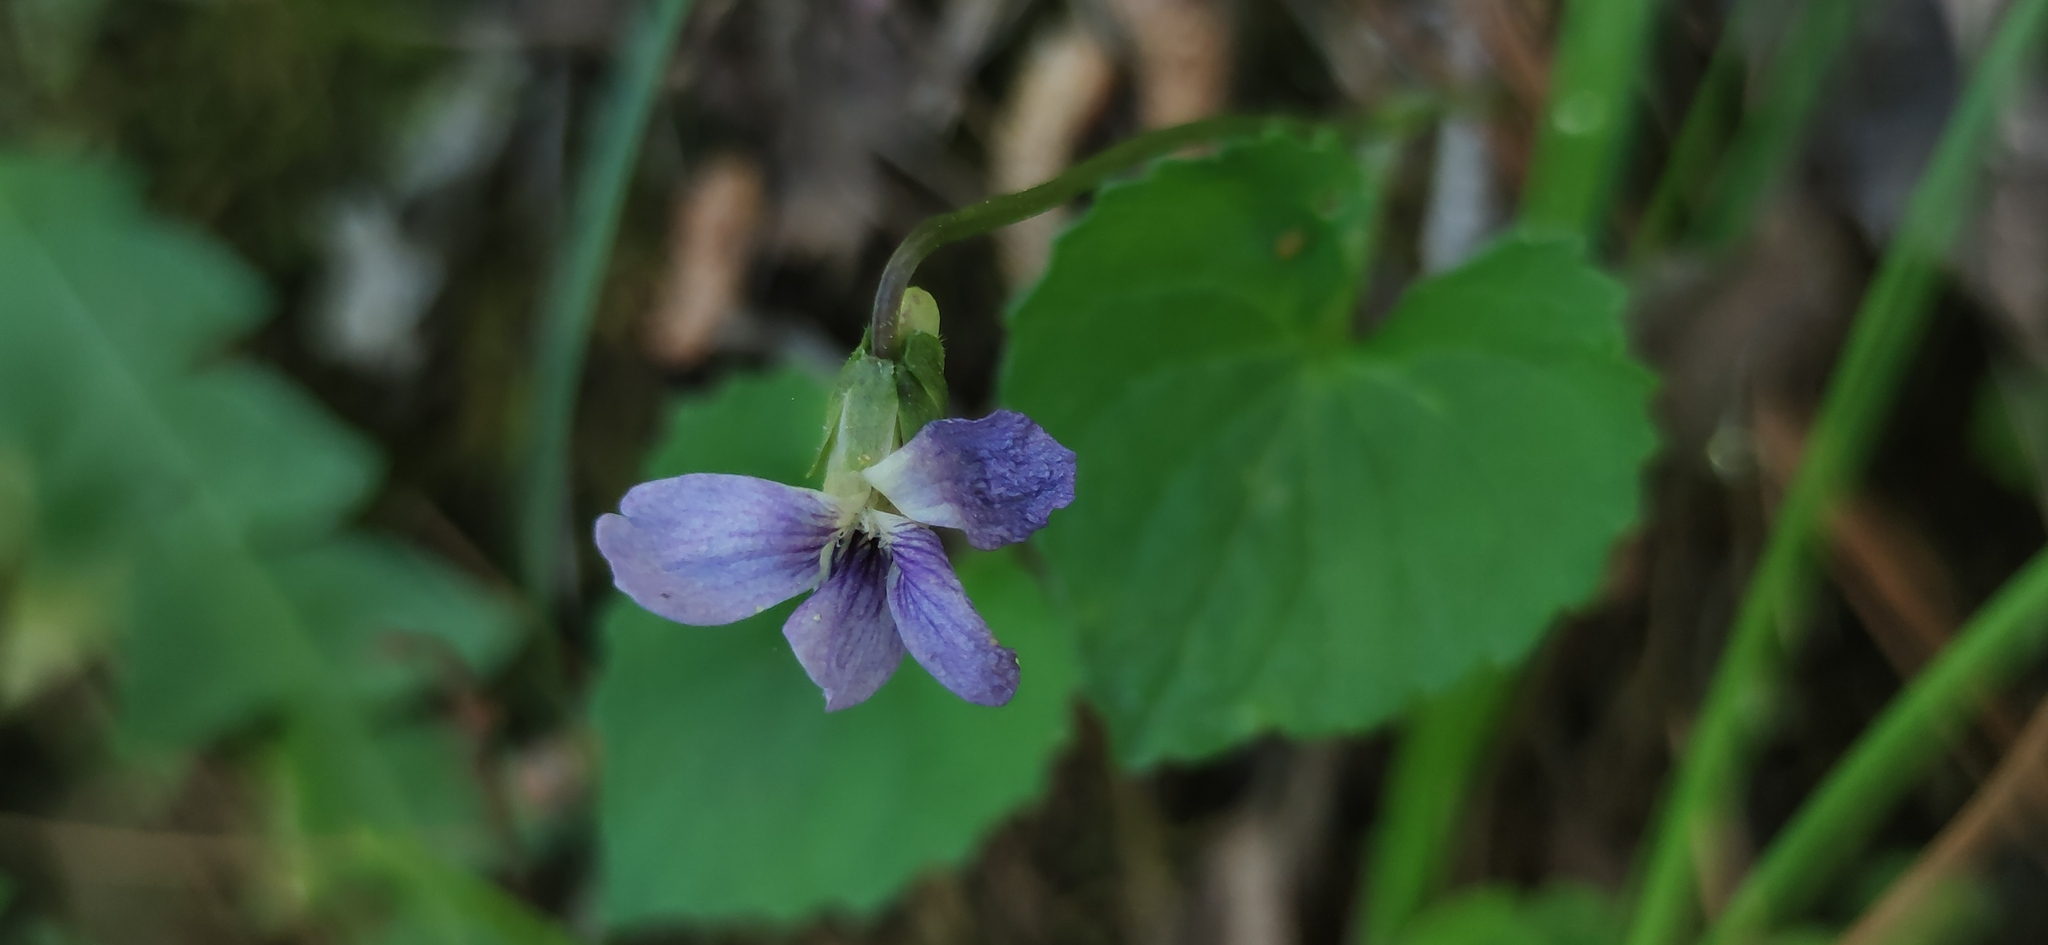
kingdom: Plantae
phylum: Tracheophyta
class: Magnoliopsida
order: Malpighiales
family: Violaceae
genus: Viola
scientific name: Viola sororia
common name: Dooryard violet
